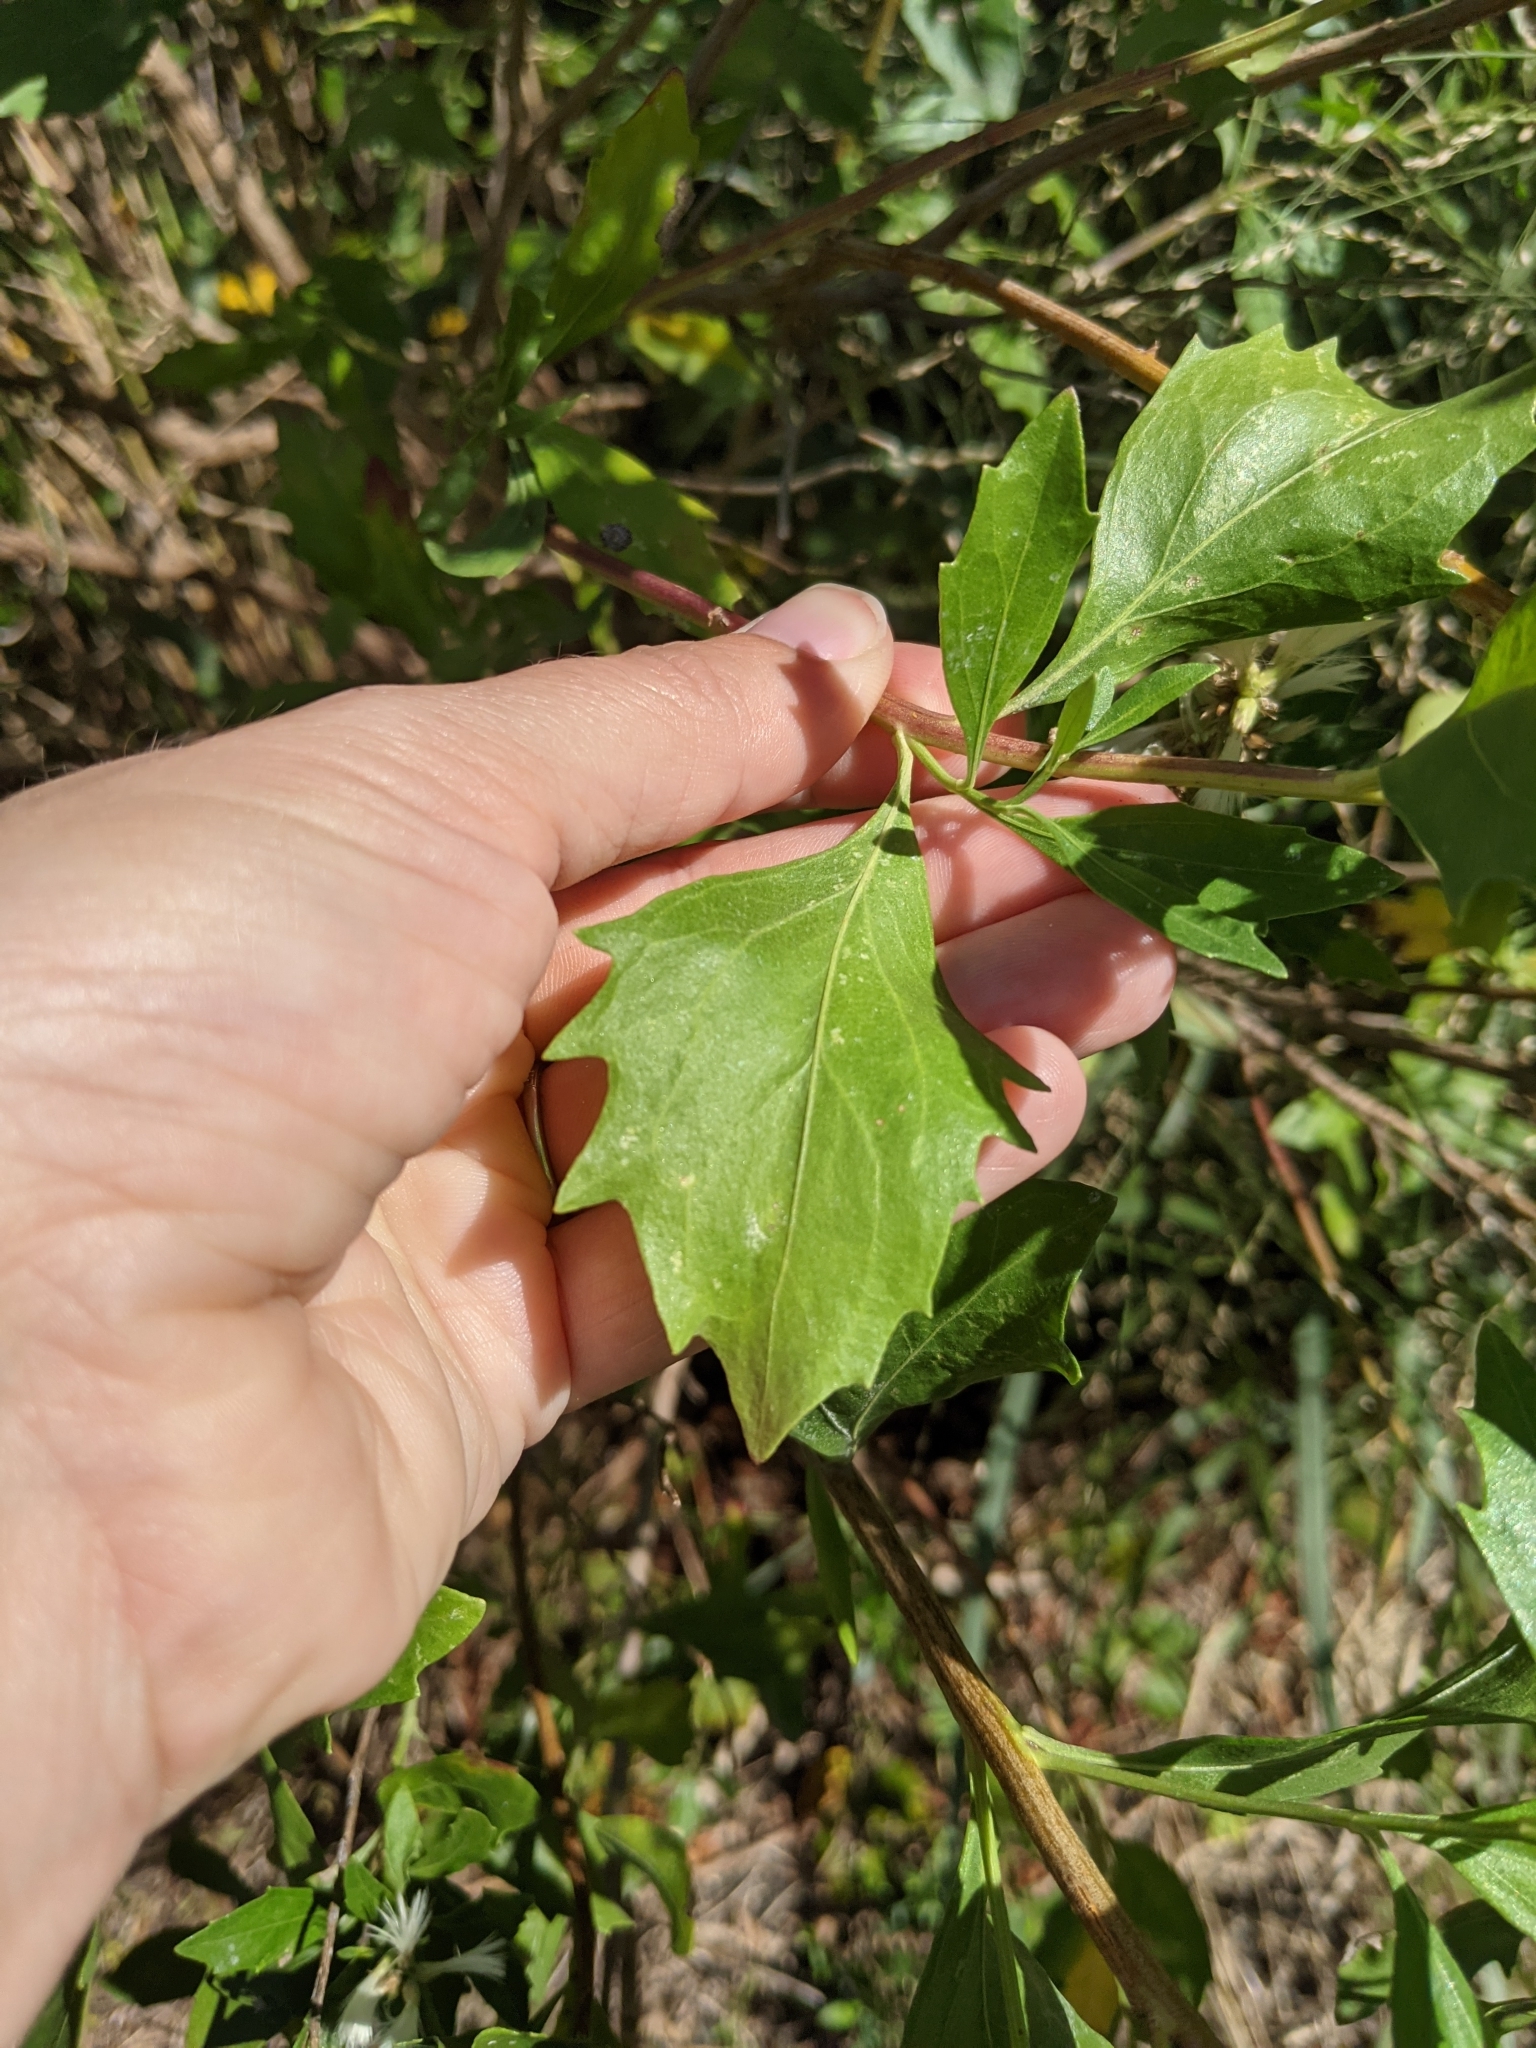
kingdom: Plantae
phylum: Tracheophyta
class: Magnoliopsida
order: Asterales
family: Asteraceae
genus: Baccharis
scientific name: Baccharis halimifolia
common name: Eastern baccharis
